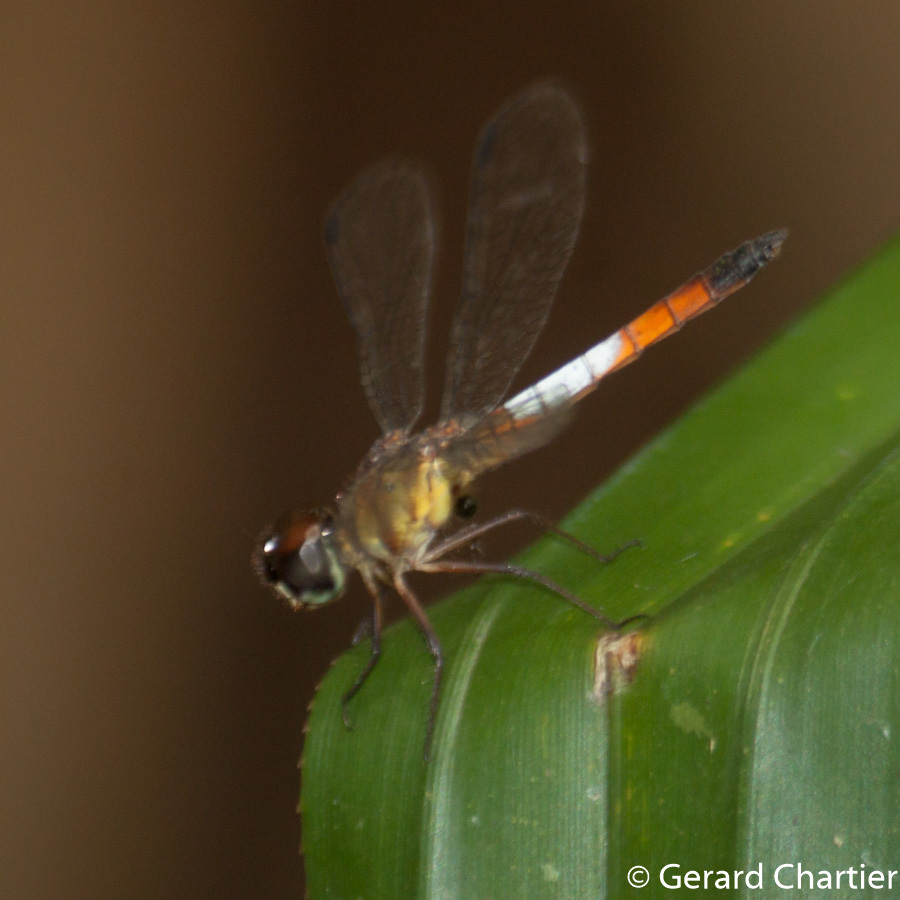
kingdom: Animalia
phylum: Arthropoda
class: Insecta
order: Odonata
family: Libellulidae
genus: Brachygonia
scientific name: Brachygonia oculata
